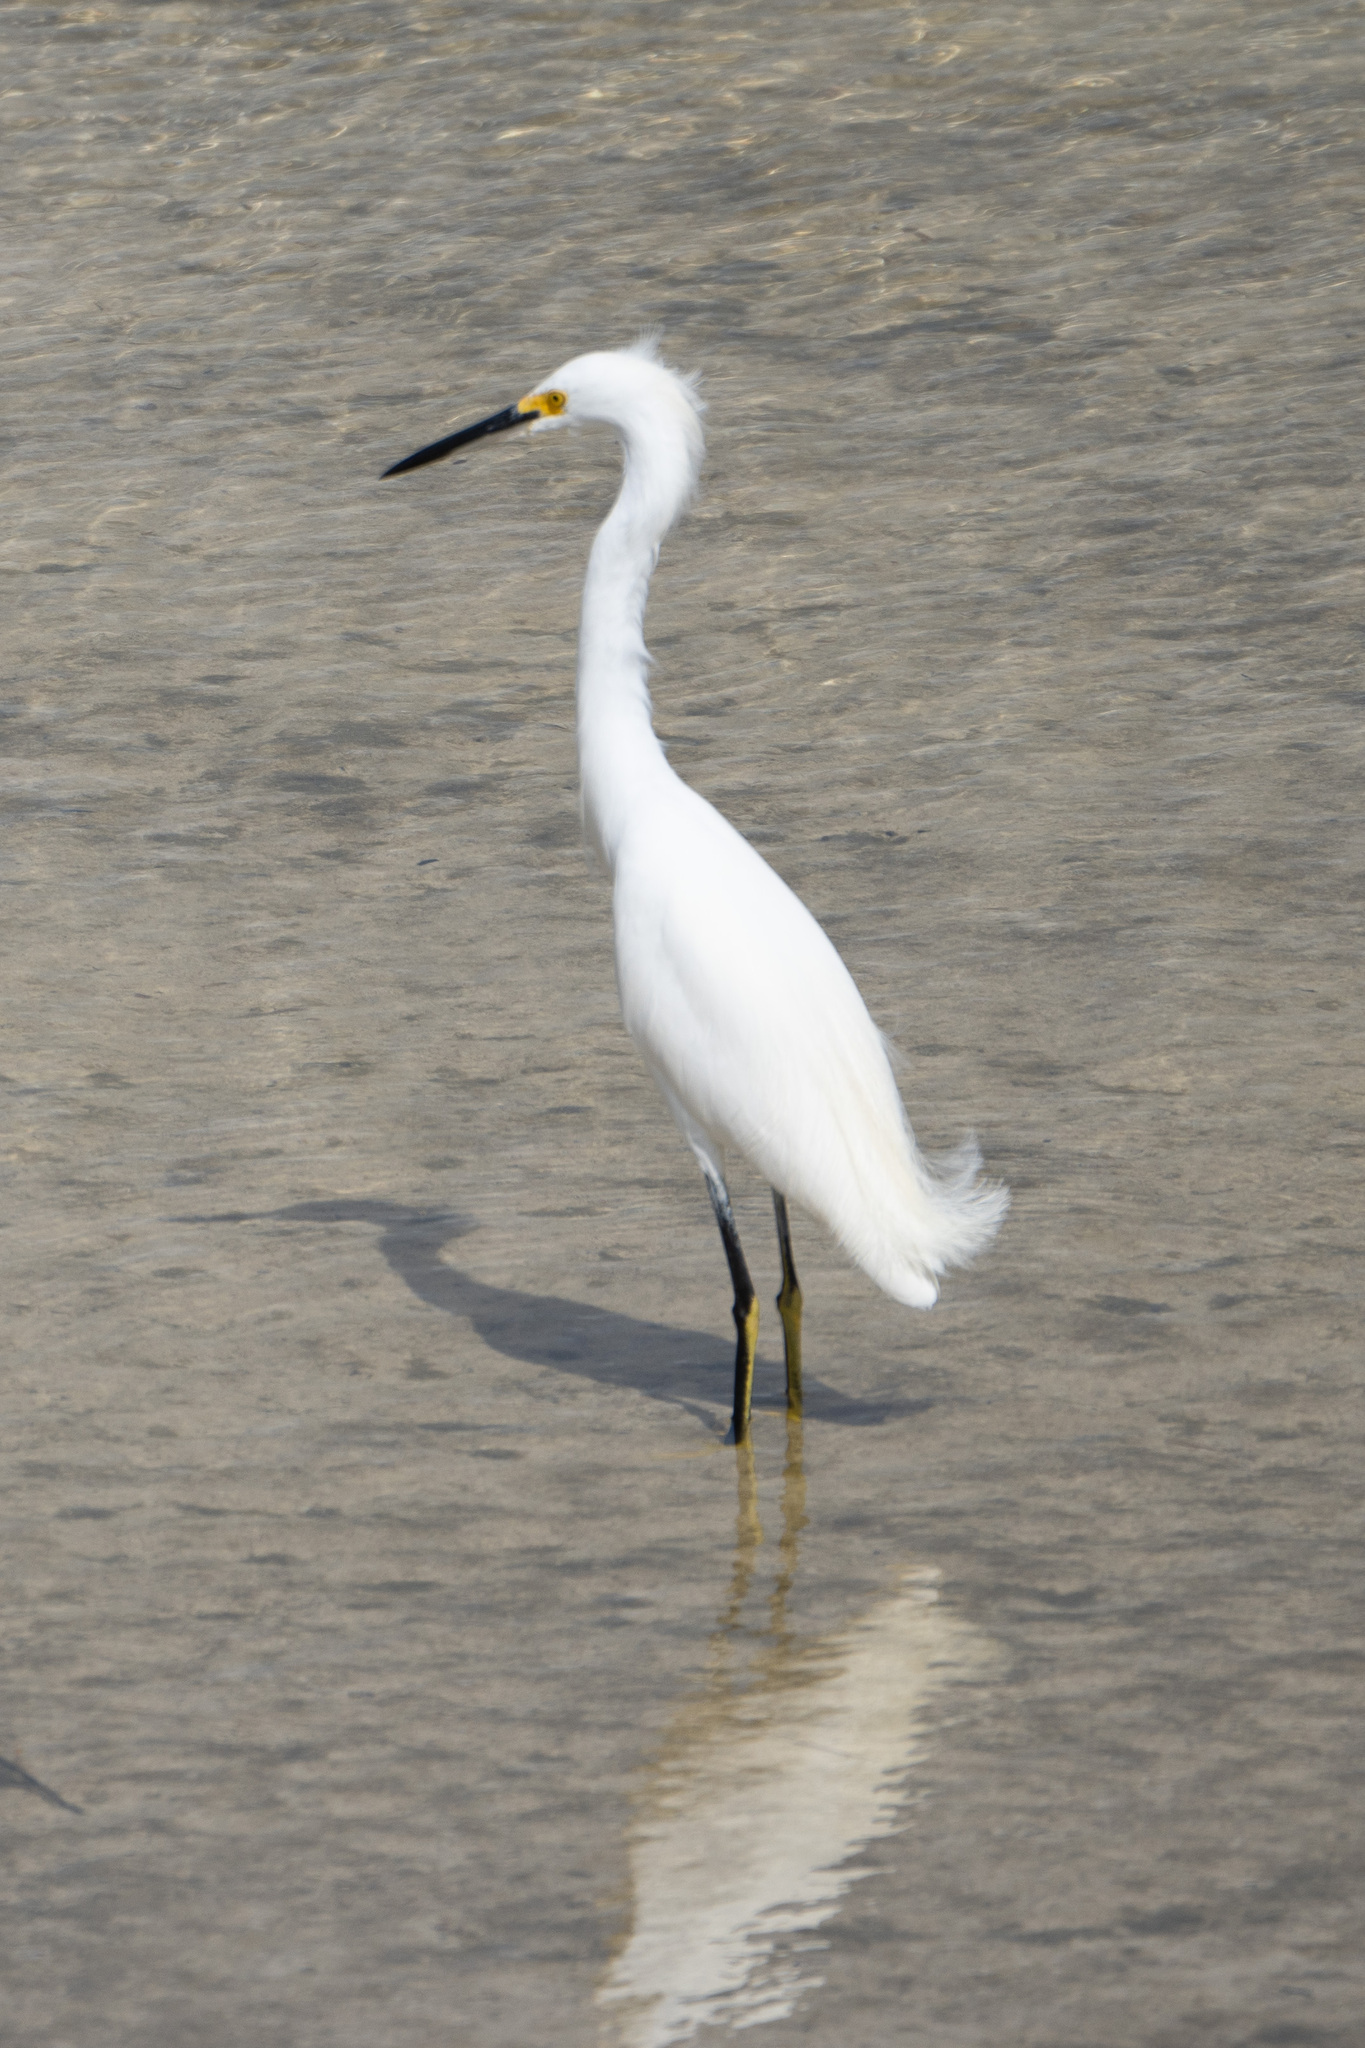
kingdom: Animalia
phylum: Chordata
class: Aves
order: Pelecaniformes
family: Ardeidae
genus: Egretta
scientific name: Egretta thula
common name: Snowy egret
